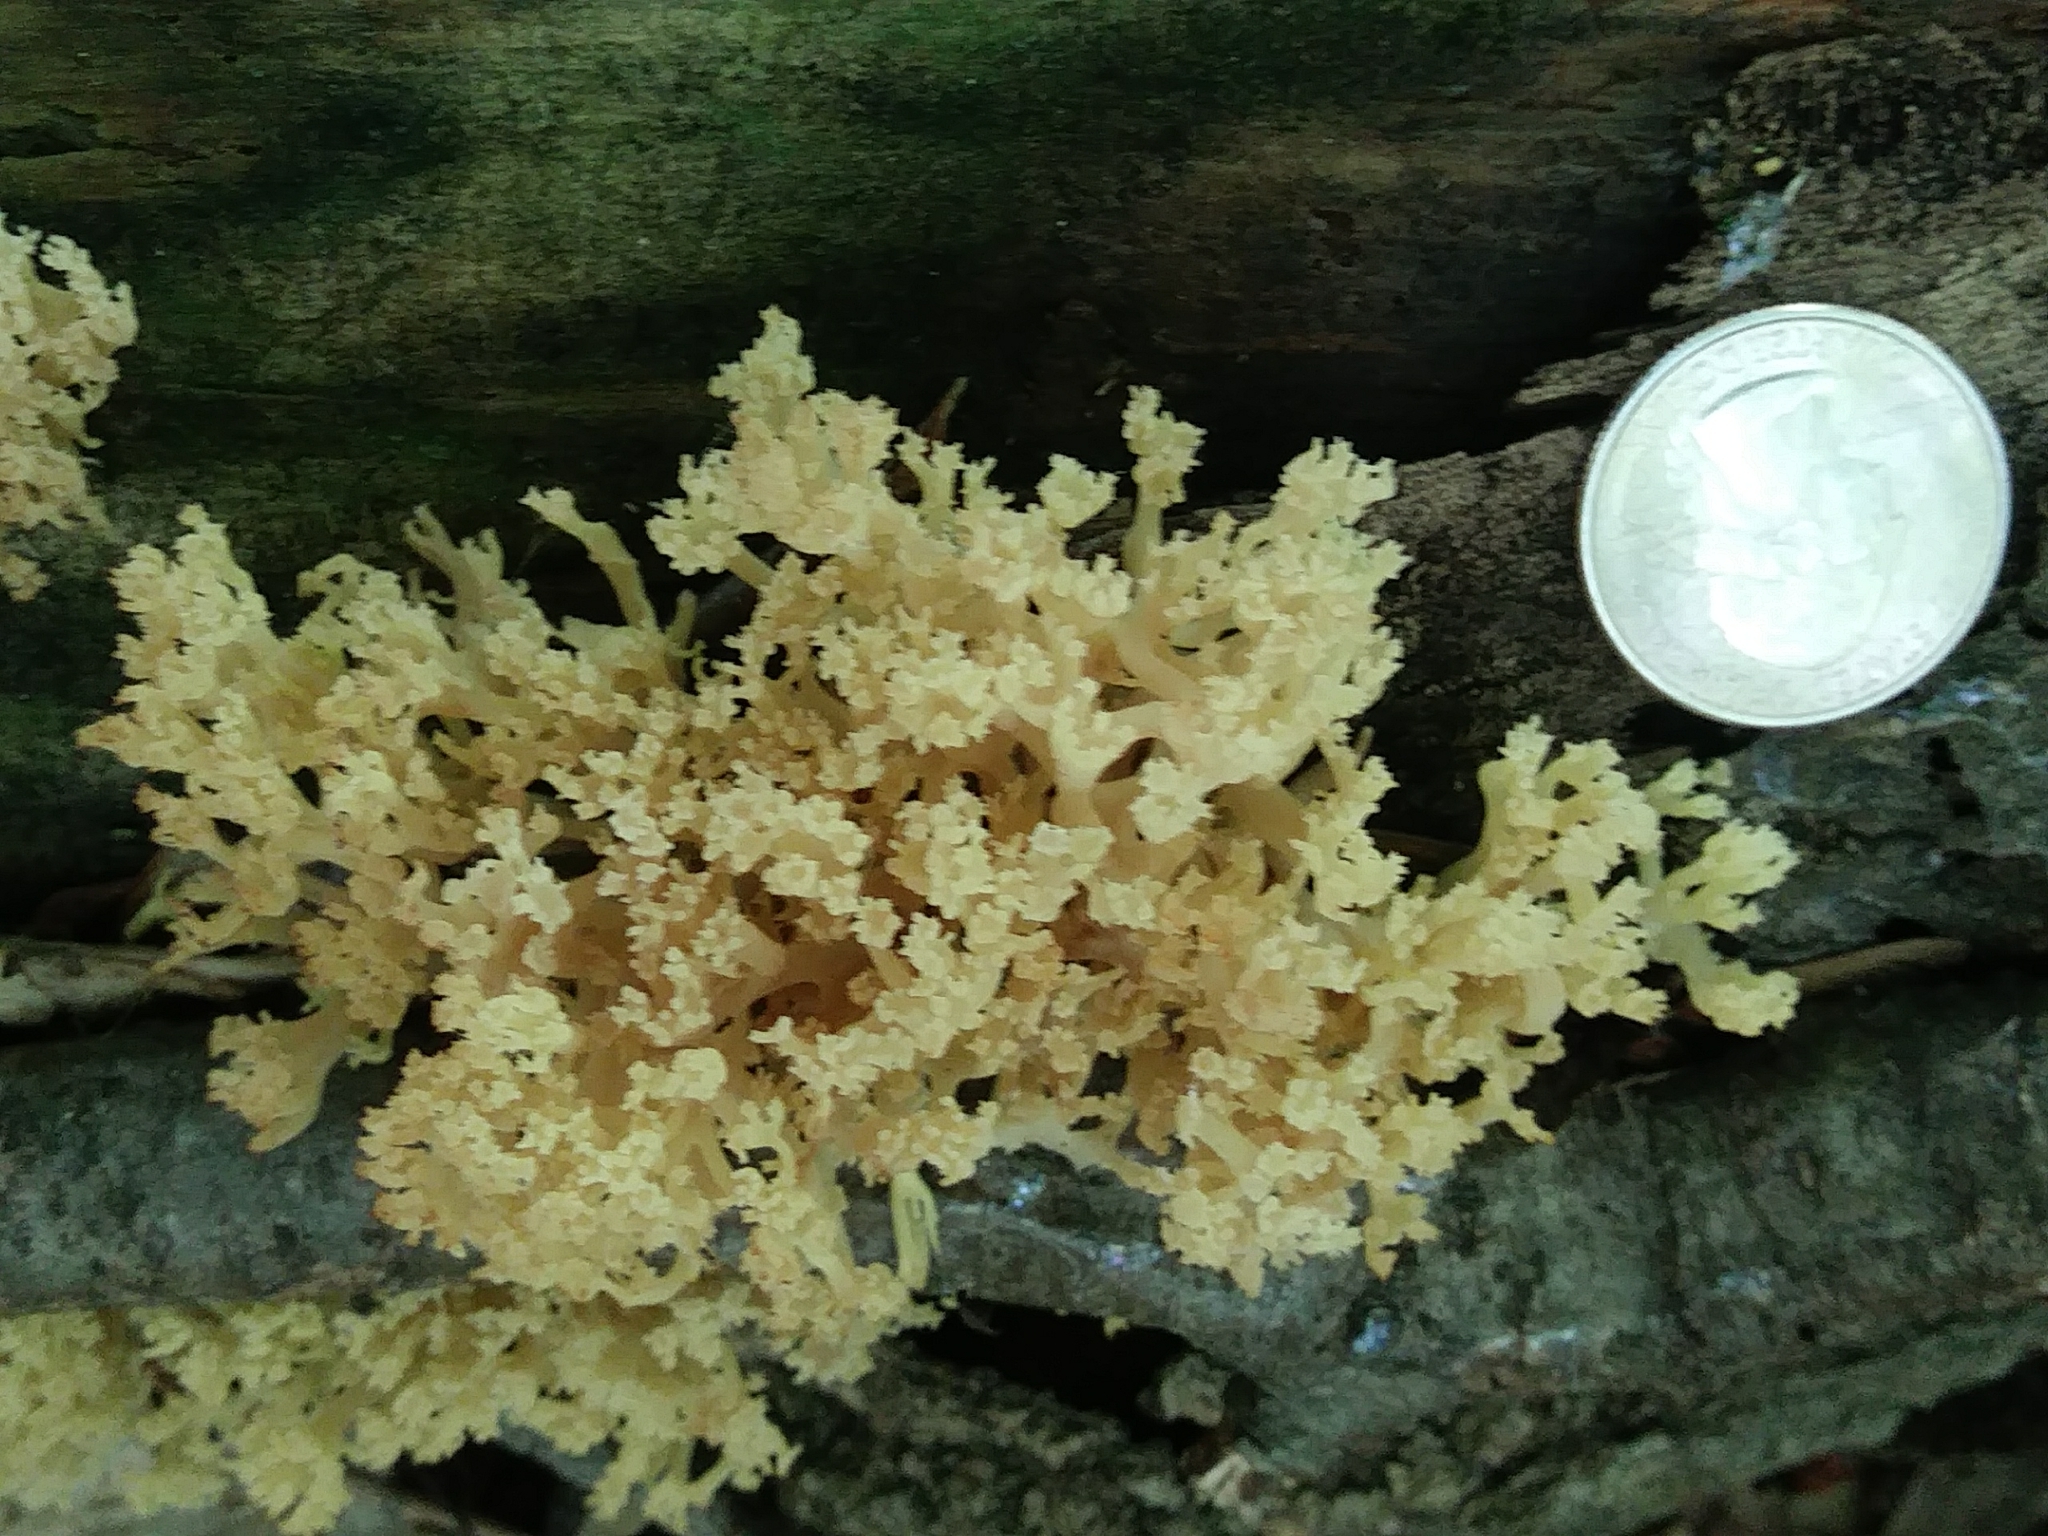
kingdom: Fungi
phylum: Basidiomycota
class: Agaricomycetes
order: Russulales
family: Auriscalpiaceae
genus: Artomyces
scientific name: Artomyces pyxidatus
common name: Crown-tipped coral fungus
